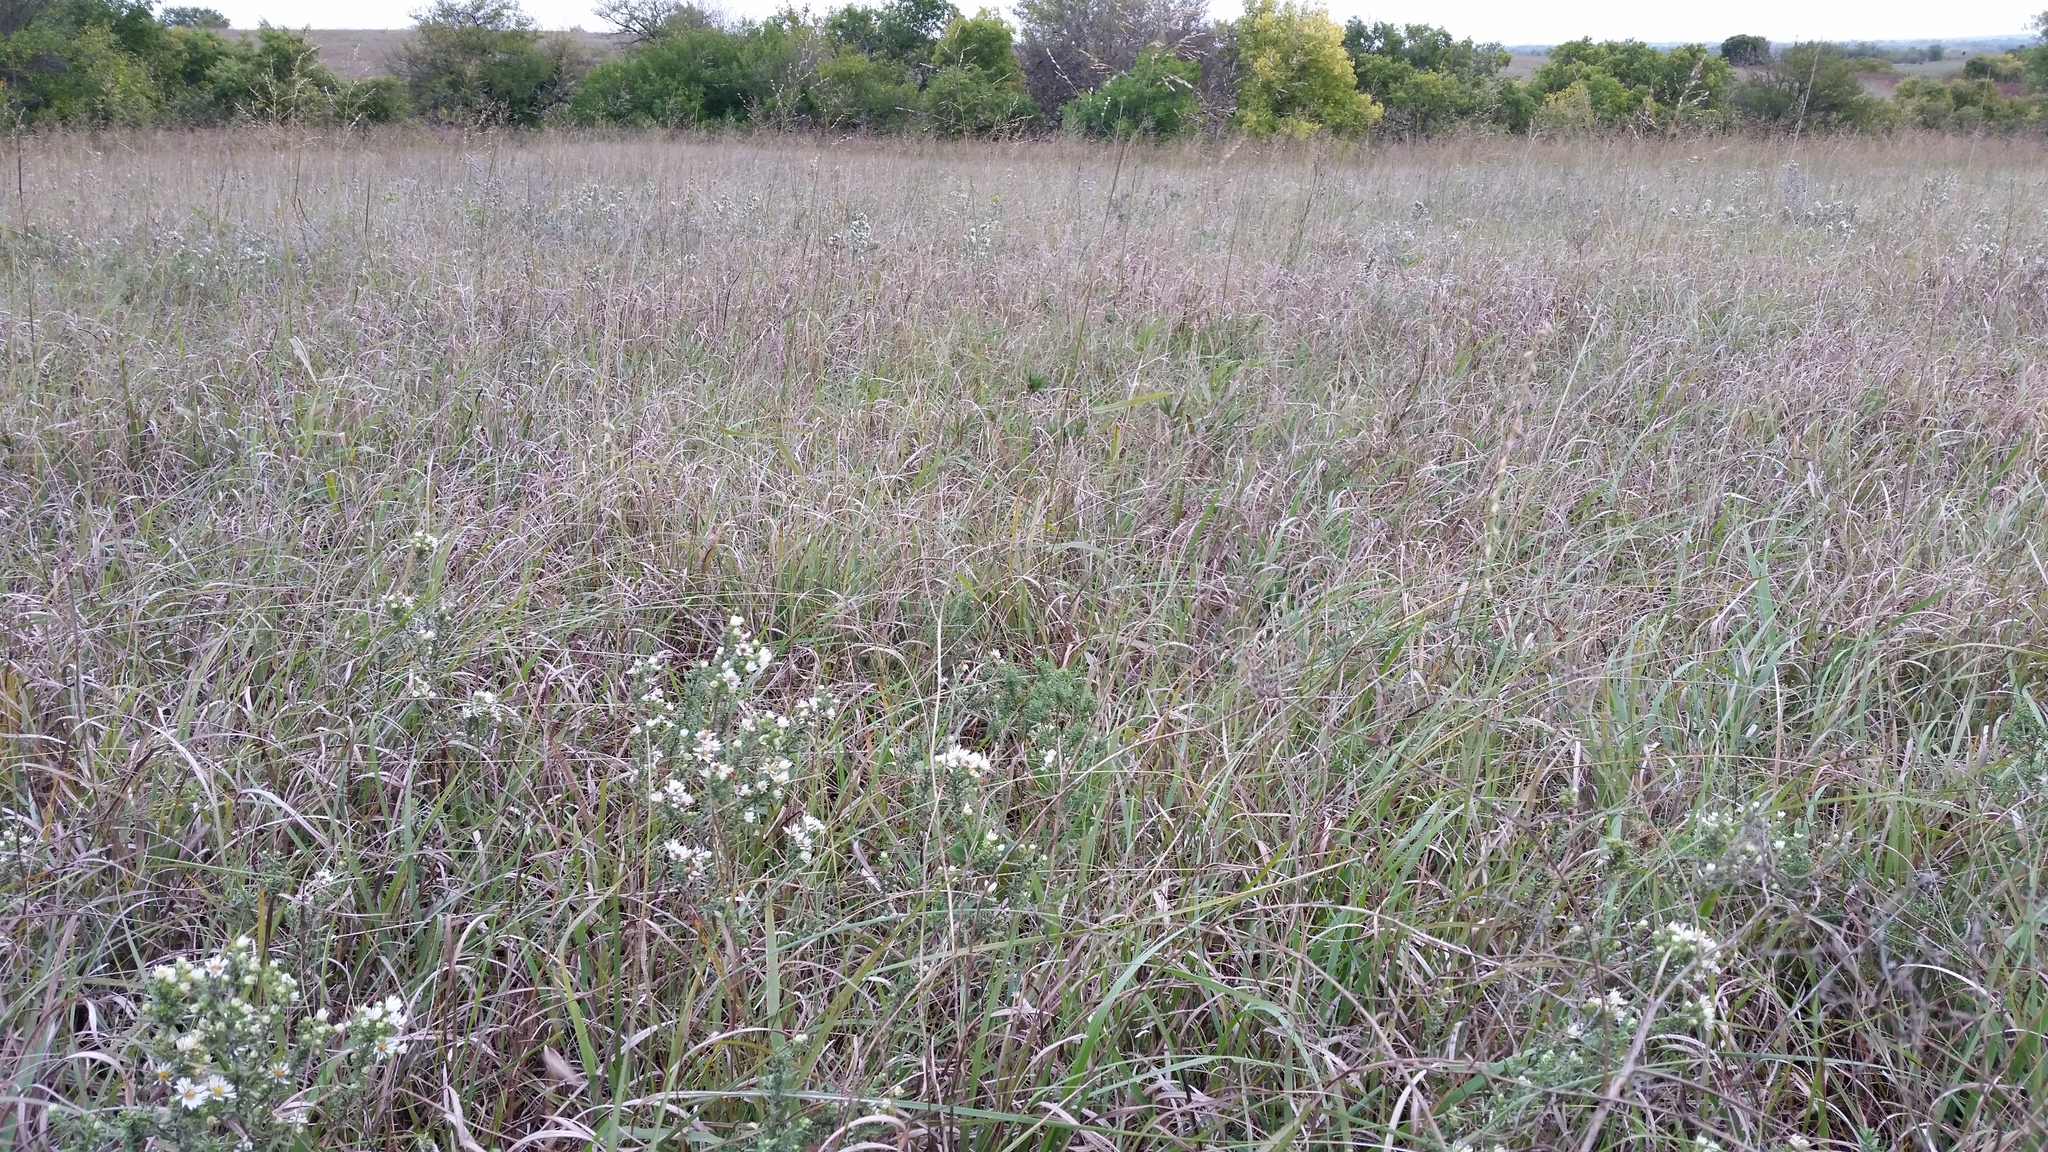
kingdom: Plantae
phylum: Tracheophyta
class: Magnoliopsida
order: Asterales
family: Asteraceae
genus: Symphyotrichum
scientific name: Symphyotrichum ericoides
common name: Heath aster
